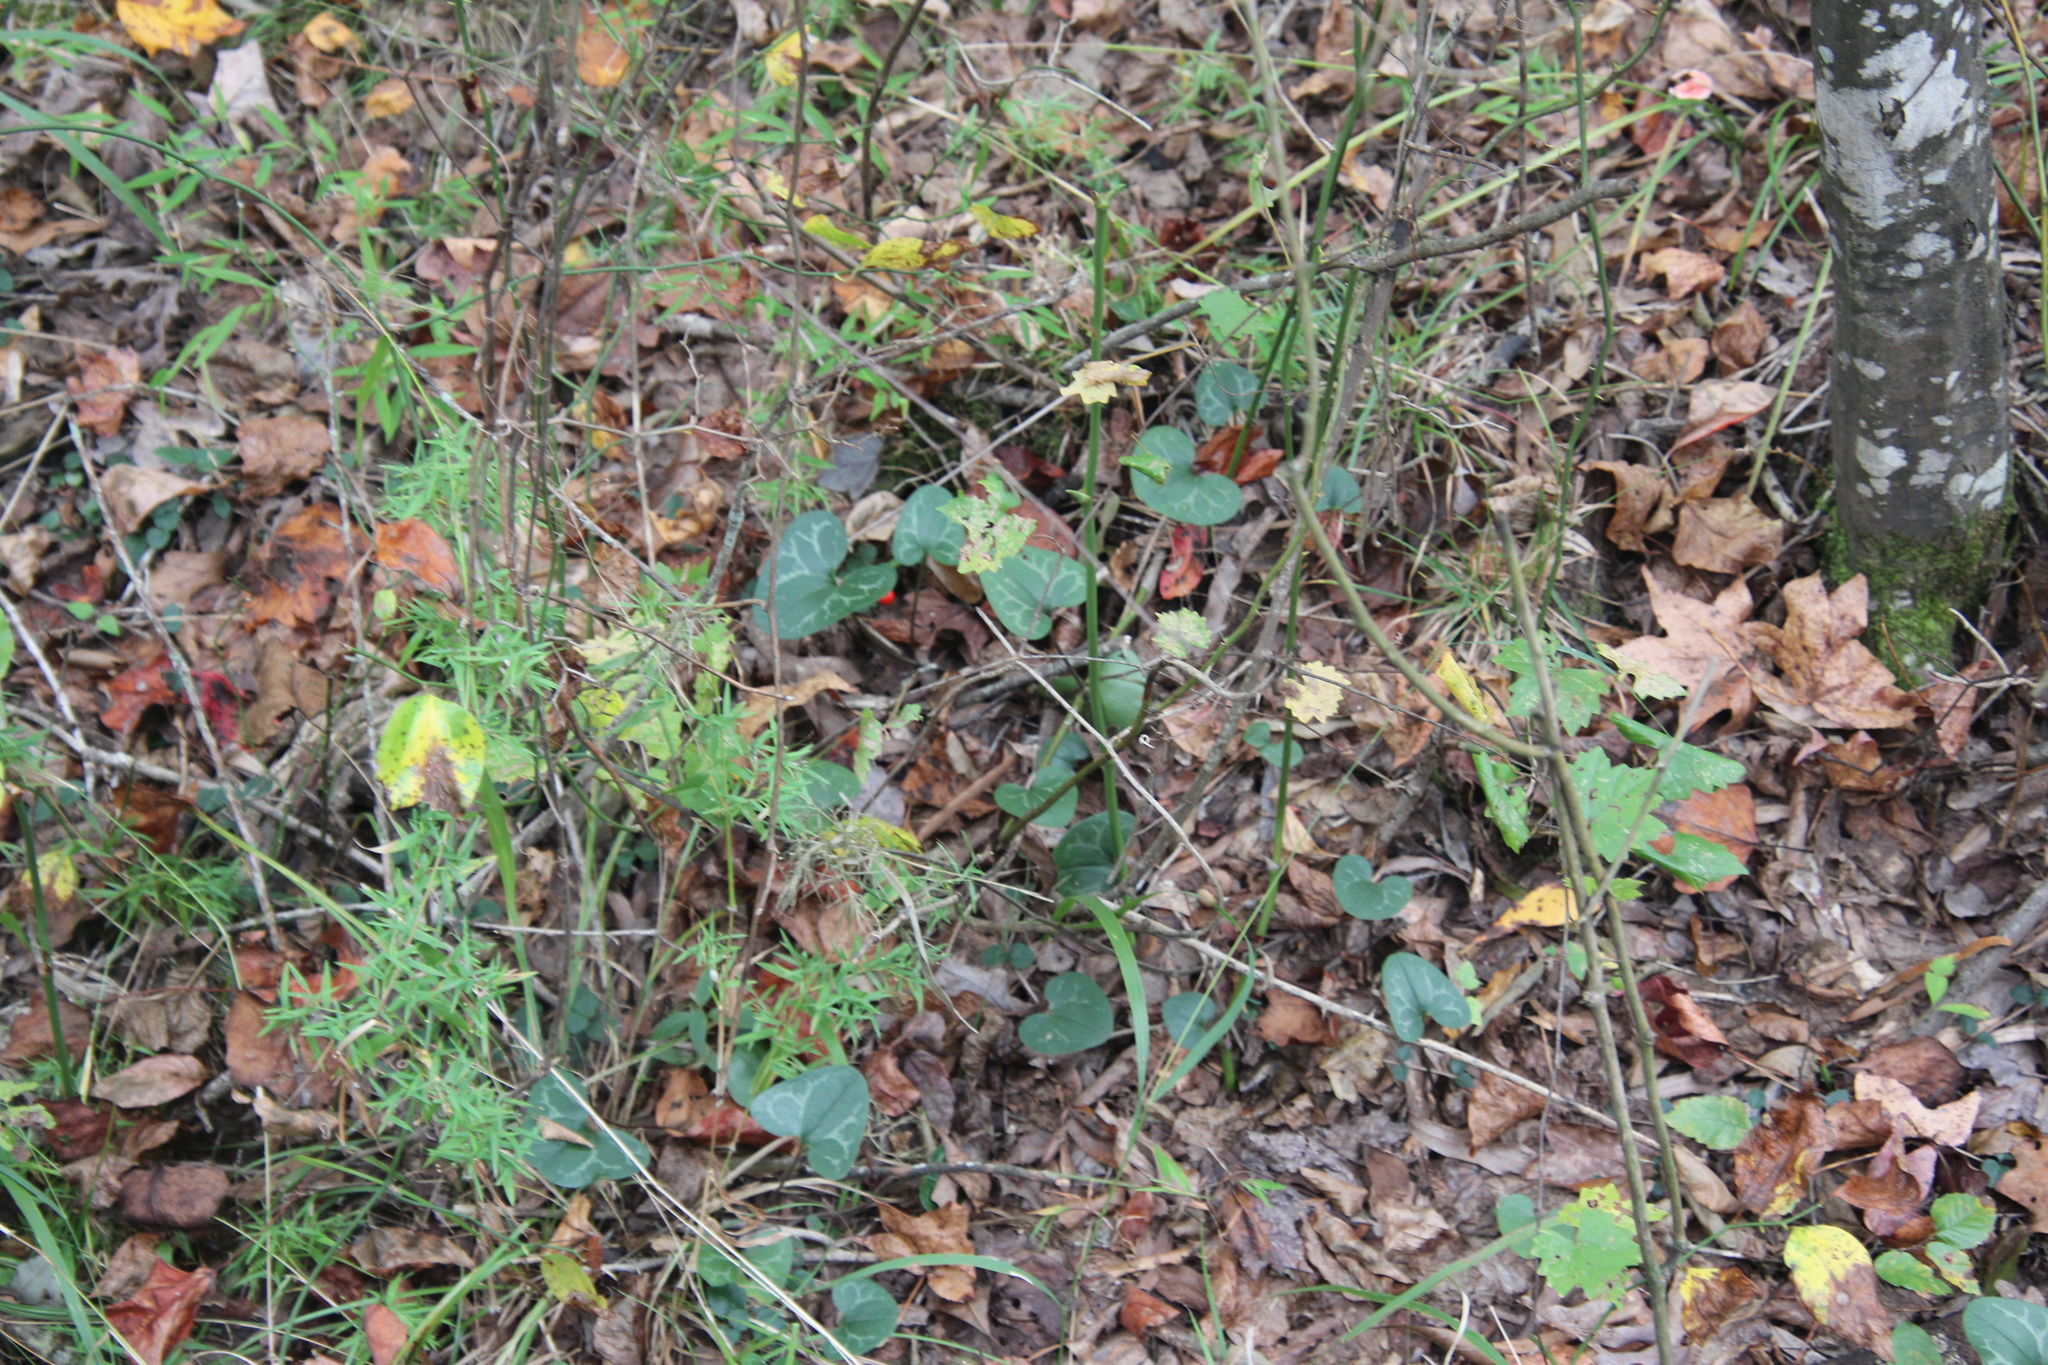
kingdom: Plantae
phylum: Tracheophyta
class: Magnoliopsida
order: Piperales
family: Aristolochiaceae
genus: Hexastylis
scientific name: Hexastylis lewisii
